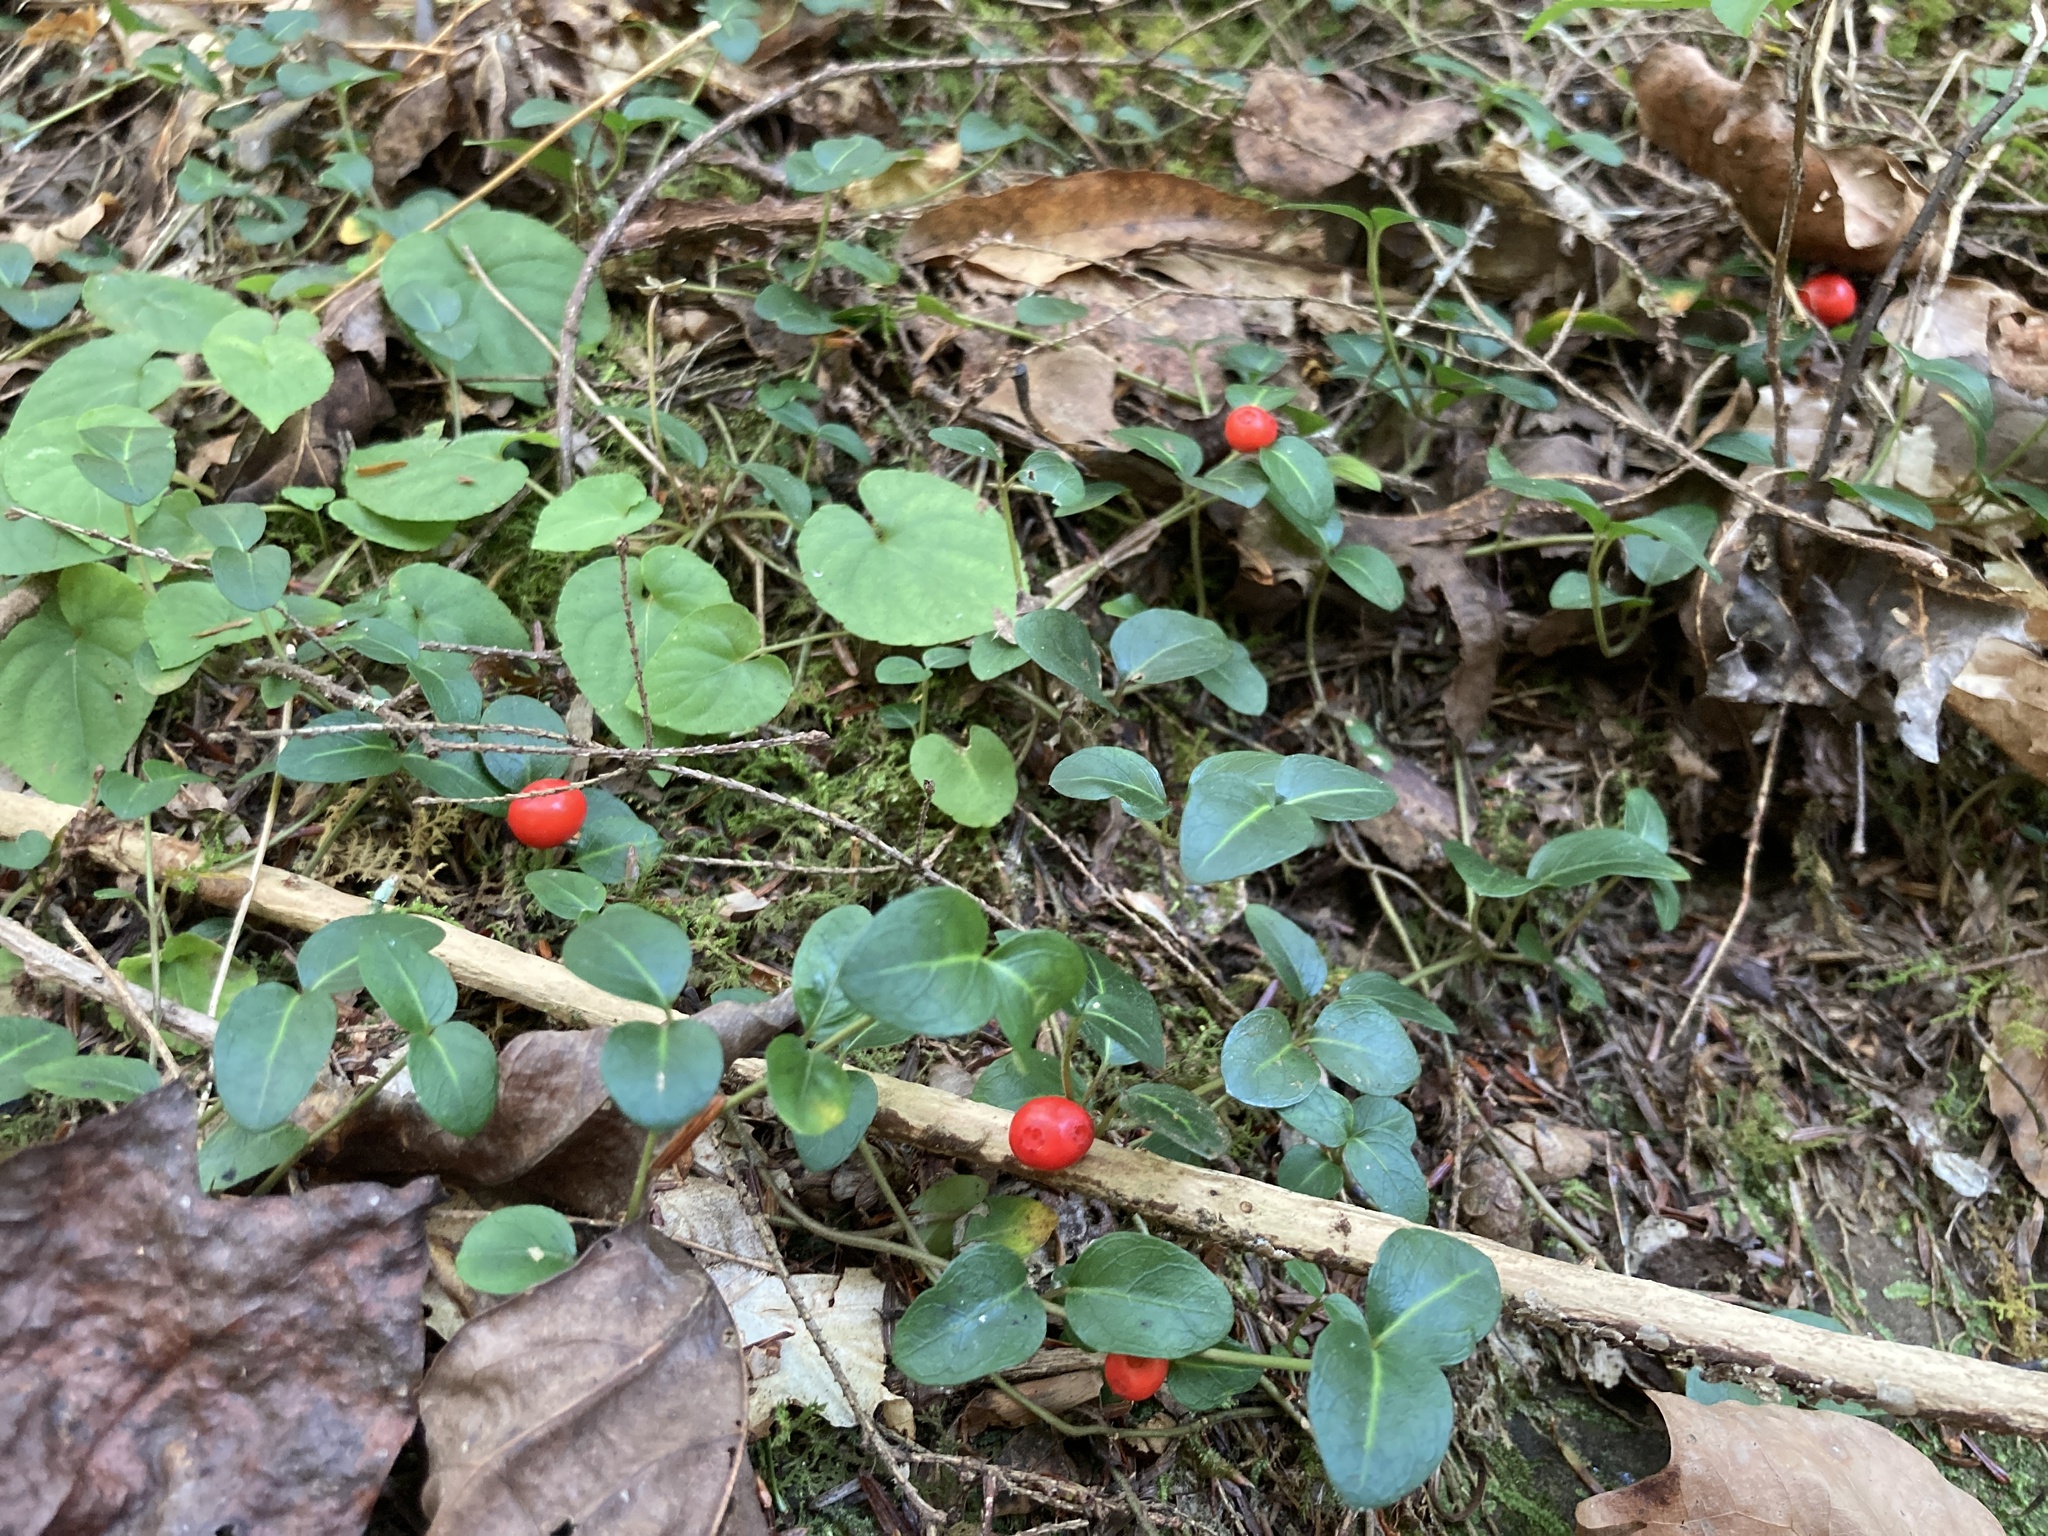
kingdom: Plantae
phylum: Tracheophyta
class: Magnoliopsida
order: Gentianales
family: Rubiaceae
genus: Mitchella
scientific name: Mitchella repens
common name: Partridge-berry
